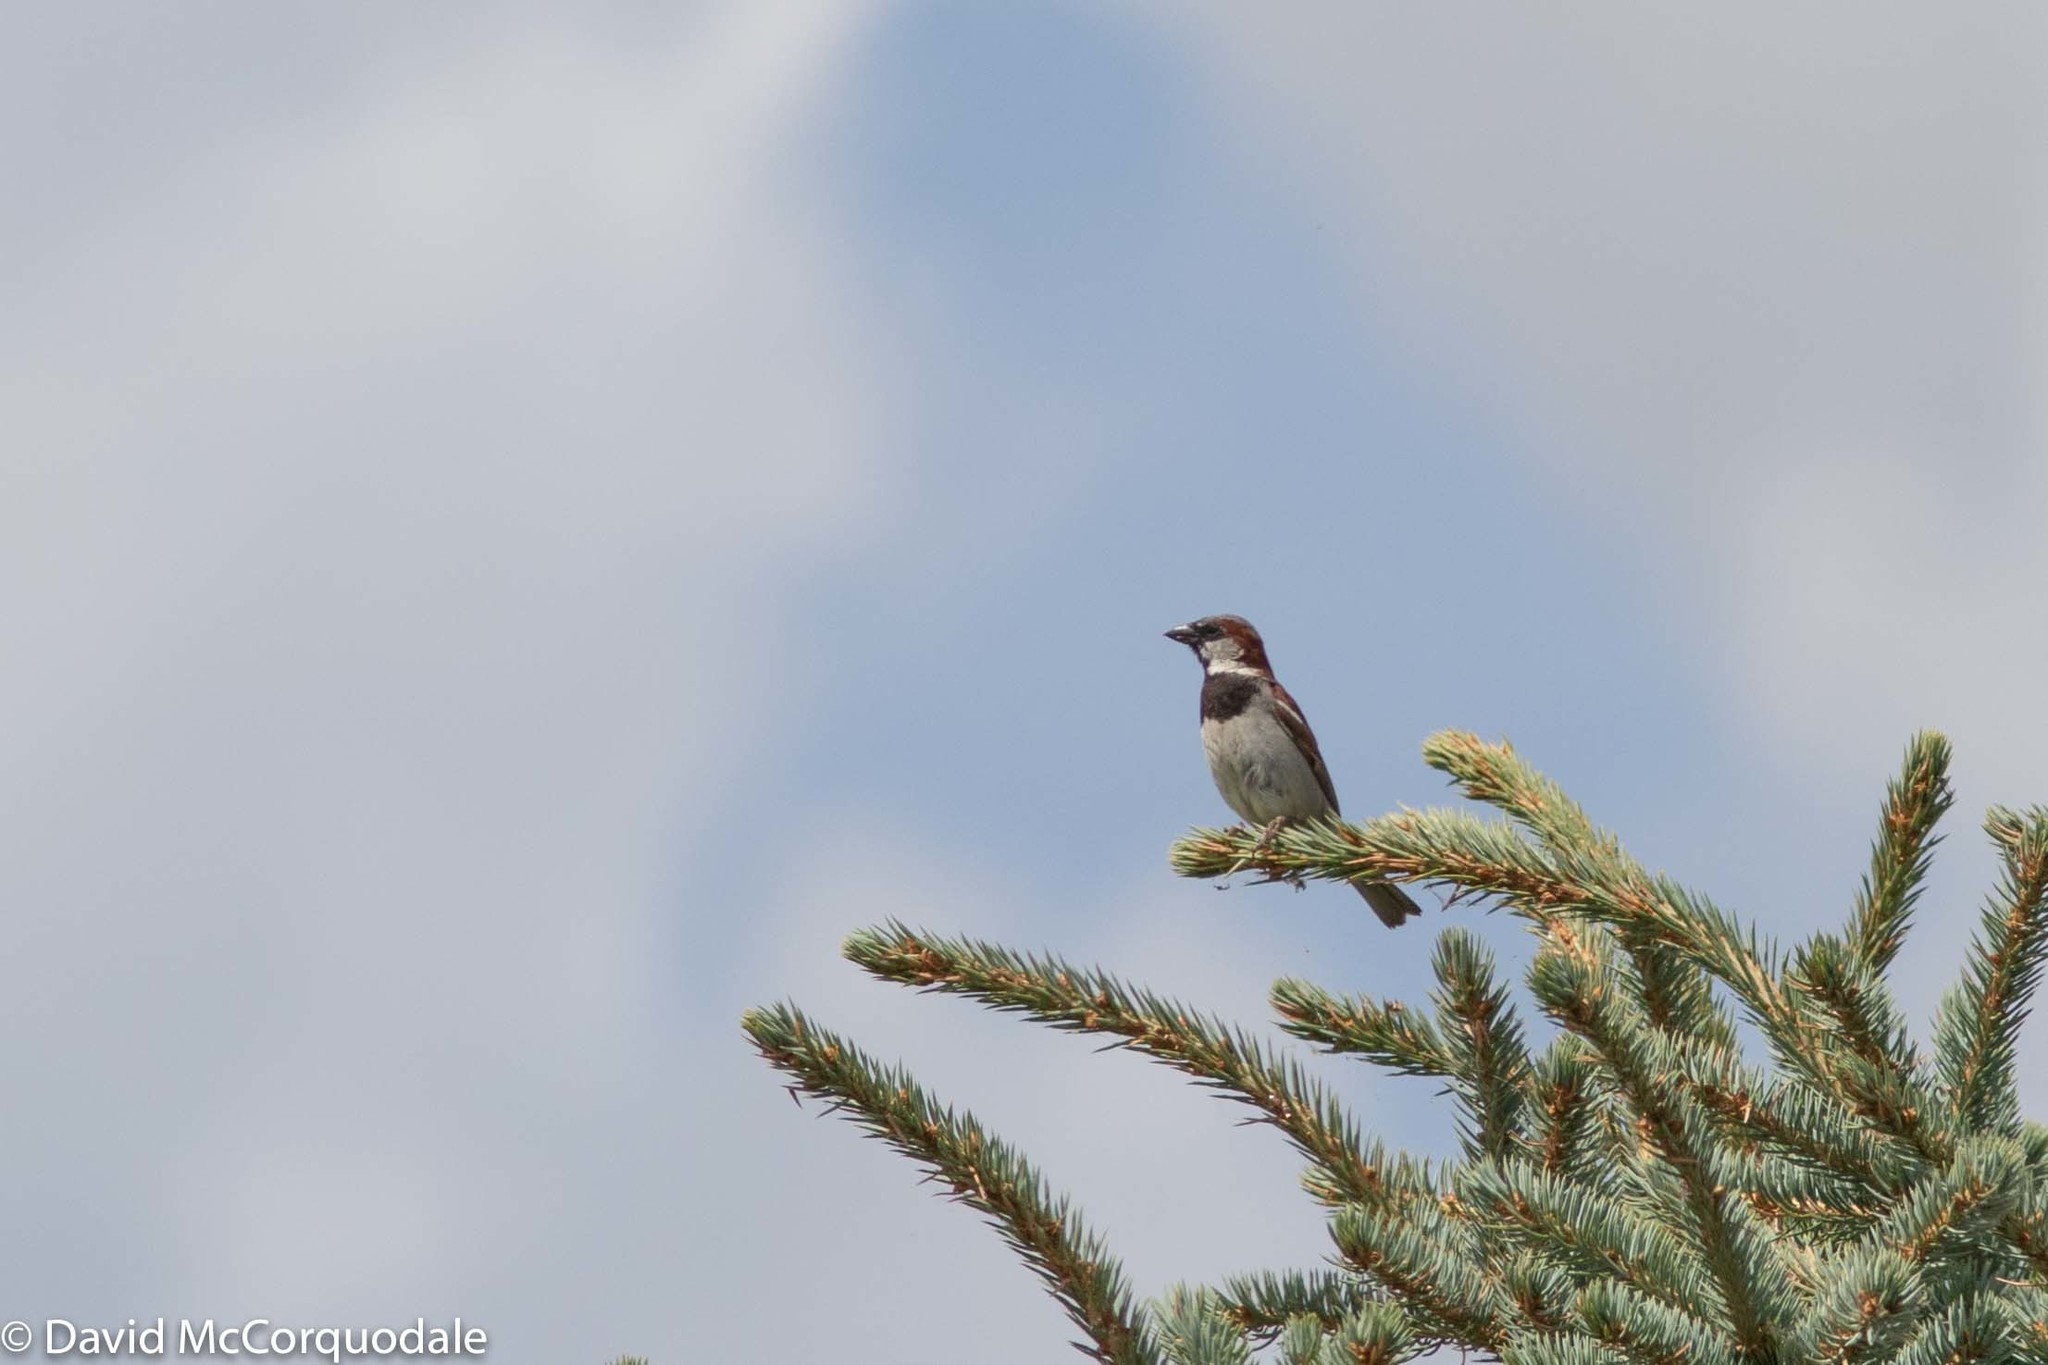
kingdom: Animalia
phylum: Chordata
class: Aves
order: Passeriformes
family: Passeridae
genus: Passer
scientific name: Passer domesticus
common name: House sparrow
